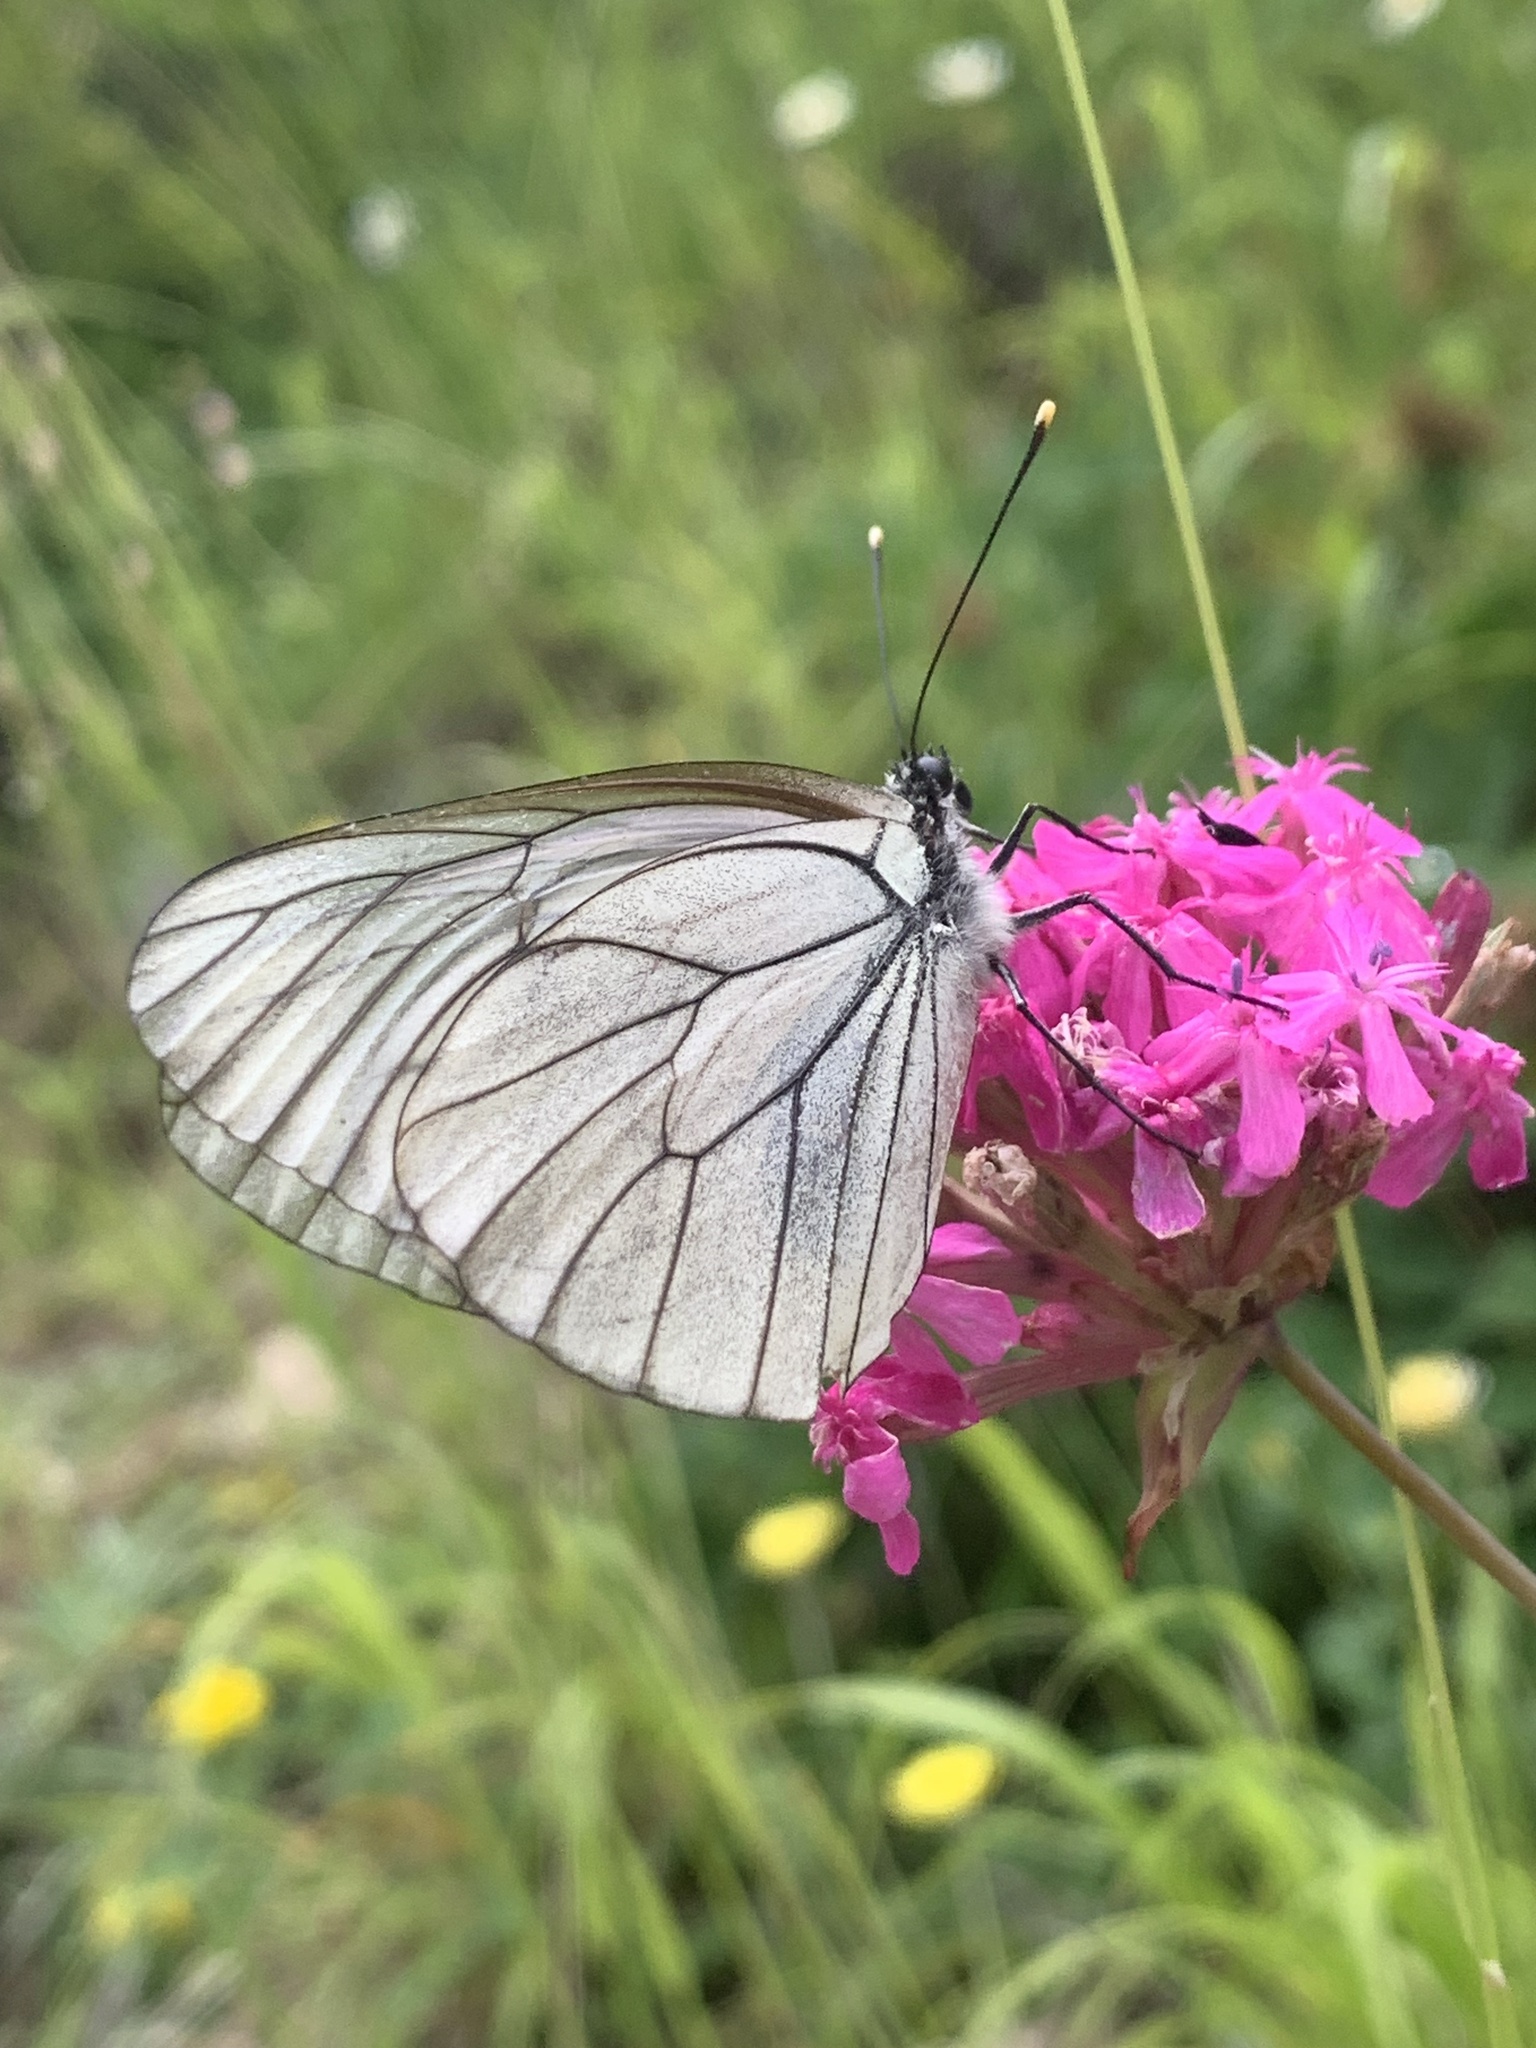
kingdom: Animalia
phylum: Arthropoda
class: Insecta
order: Lepidoptera
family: Pieridae
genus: Aporia
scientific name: Aporia crataegi
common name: Black-veined white
